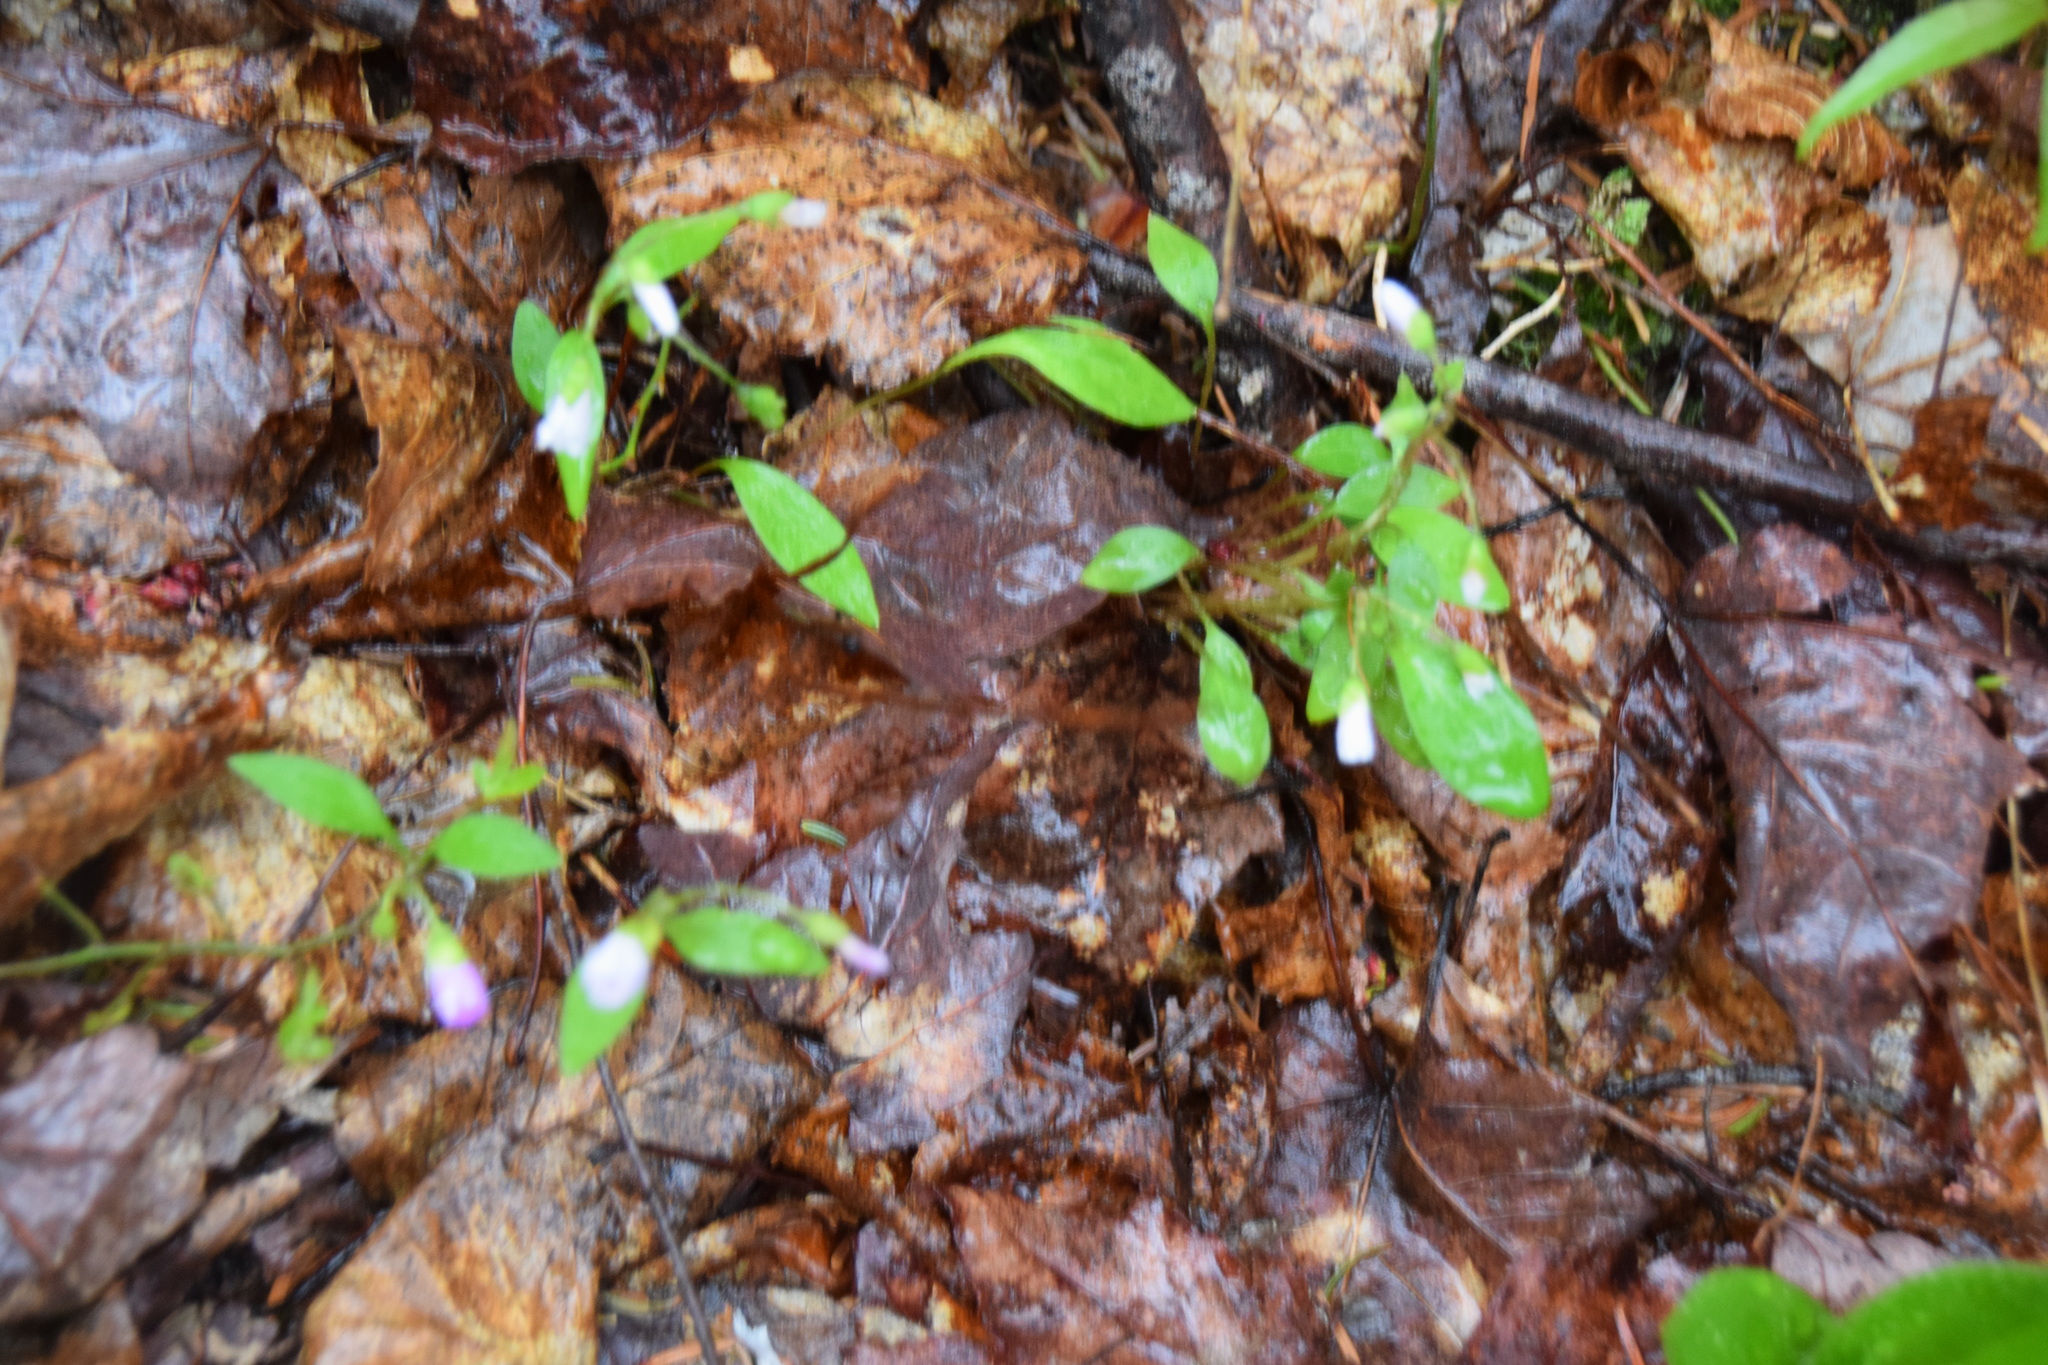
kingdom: Plantae
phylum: Tracheophyta
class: Magnoliopsida
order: Caryophyllales
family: Montiaceae
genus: Claytonia
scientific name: Claytonia caroliniana
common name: Carolina spring beauty
